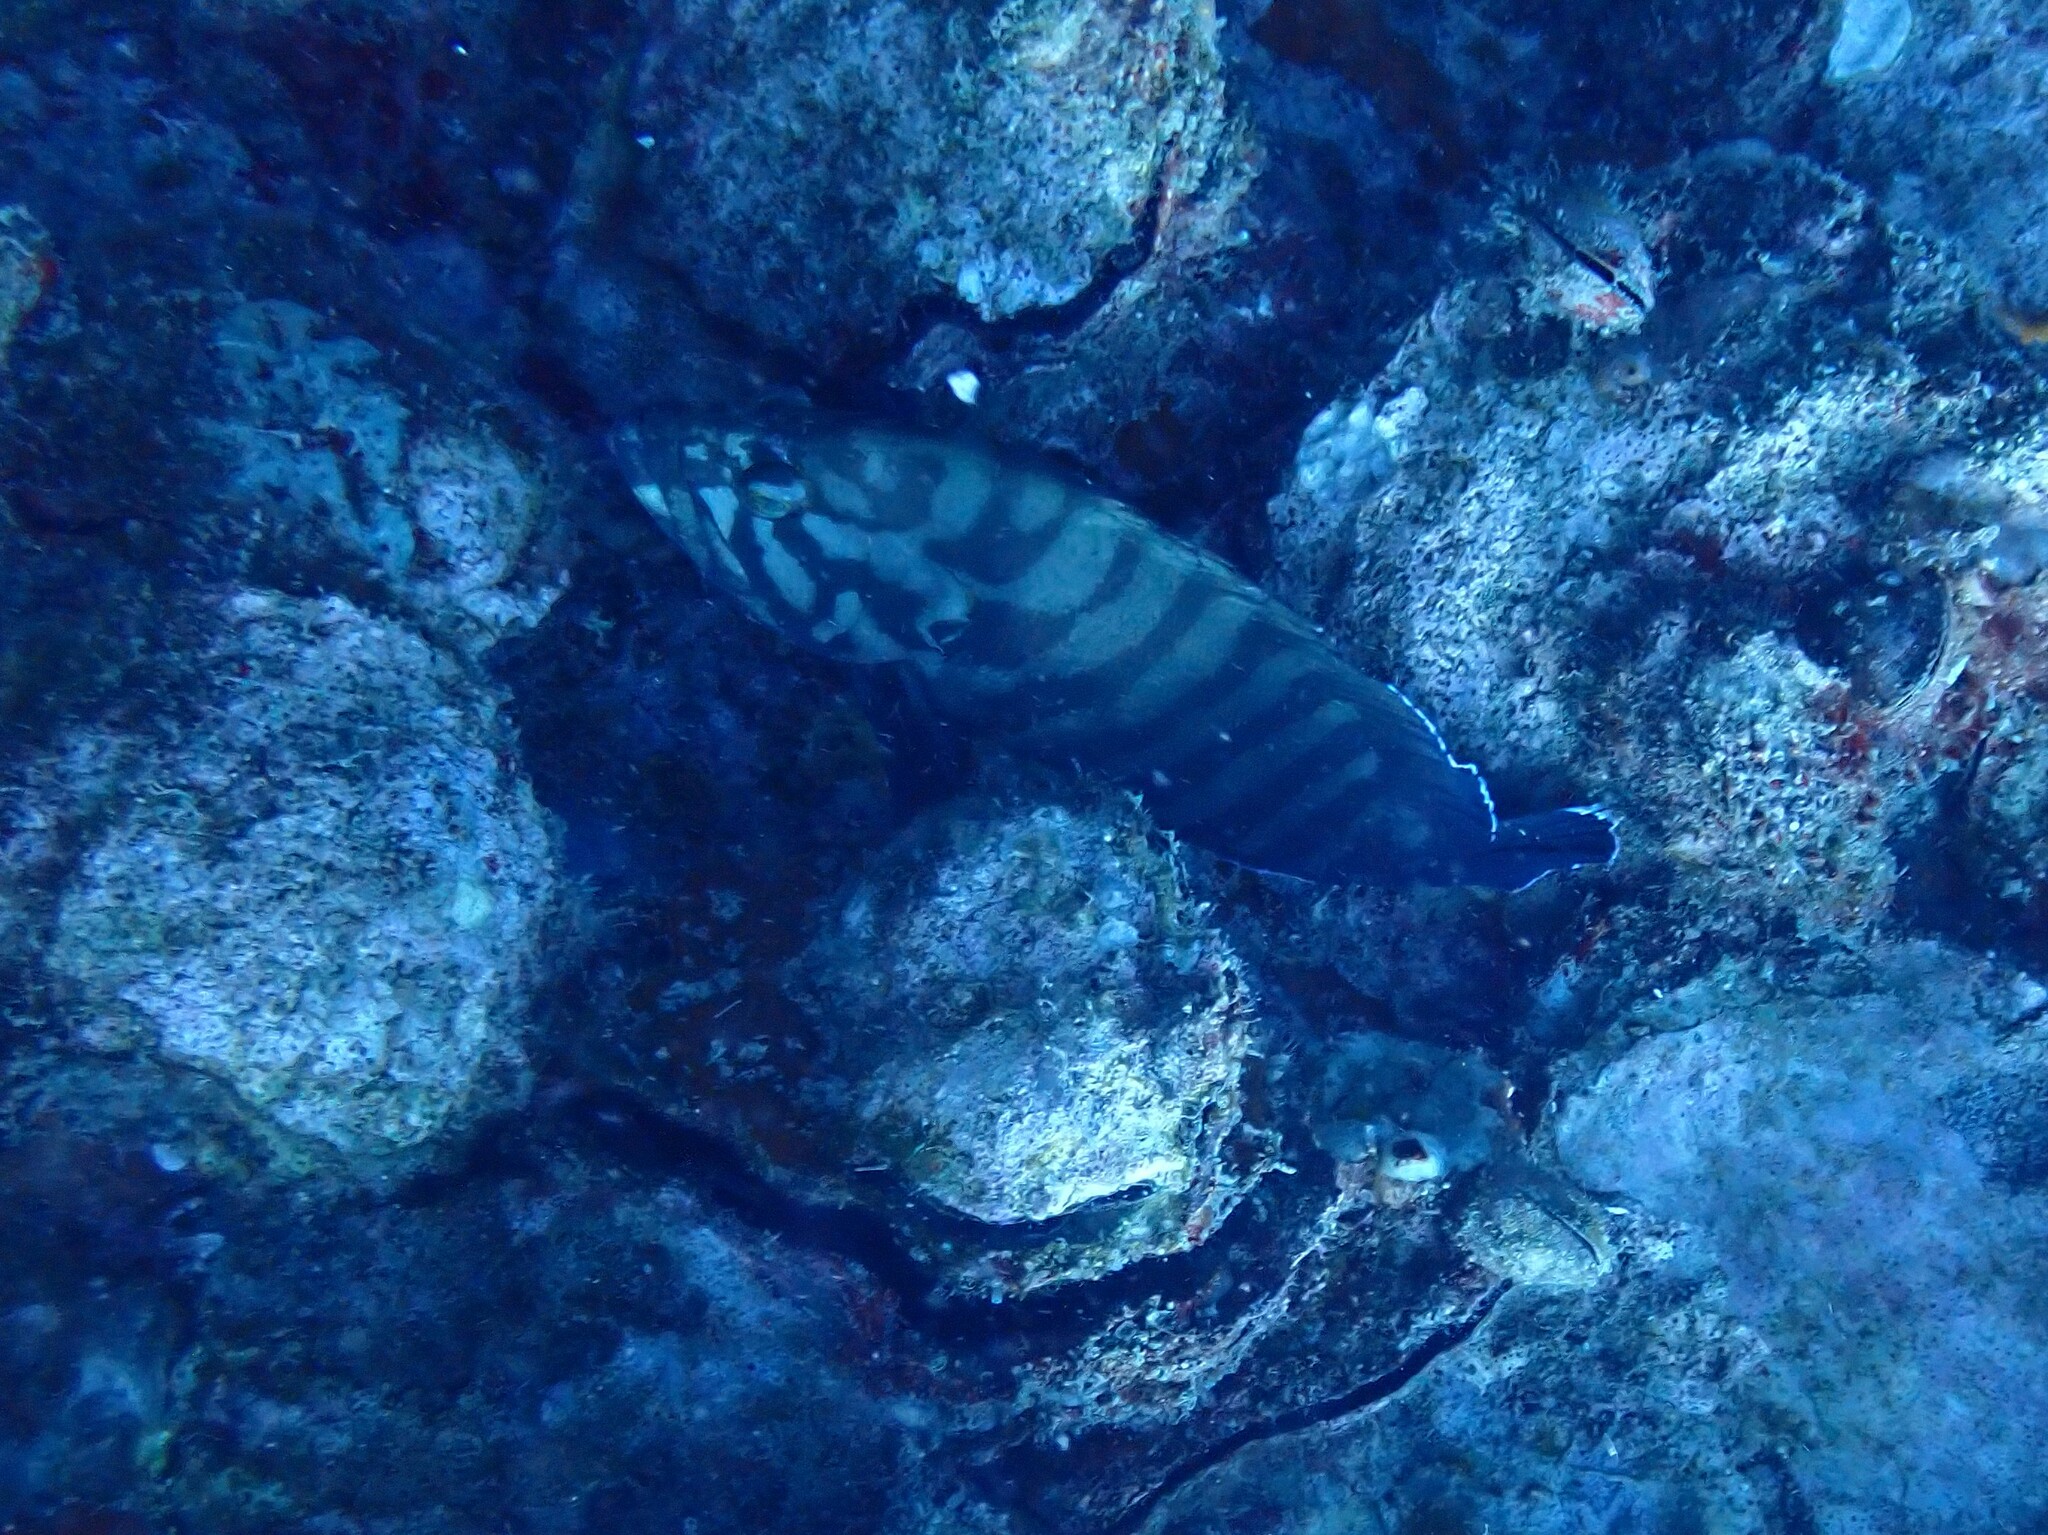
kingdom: Animalia
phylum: Chordata
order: Perciformes
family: Serranidae
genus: Cephalopholis
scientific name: Cephalopholis boenak
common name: Chocolate hind
